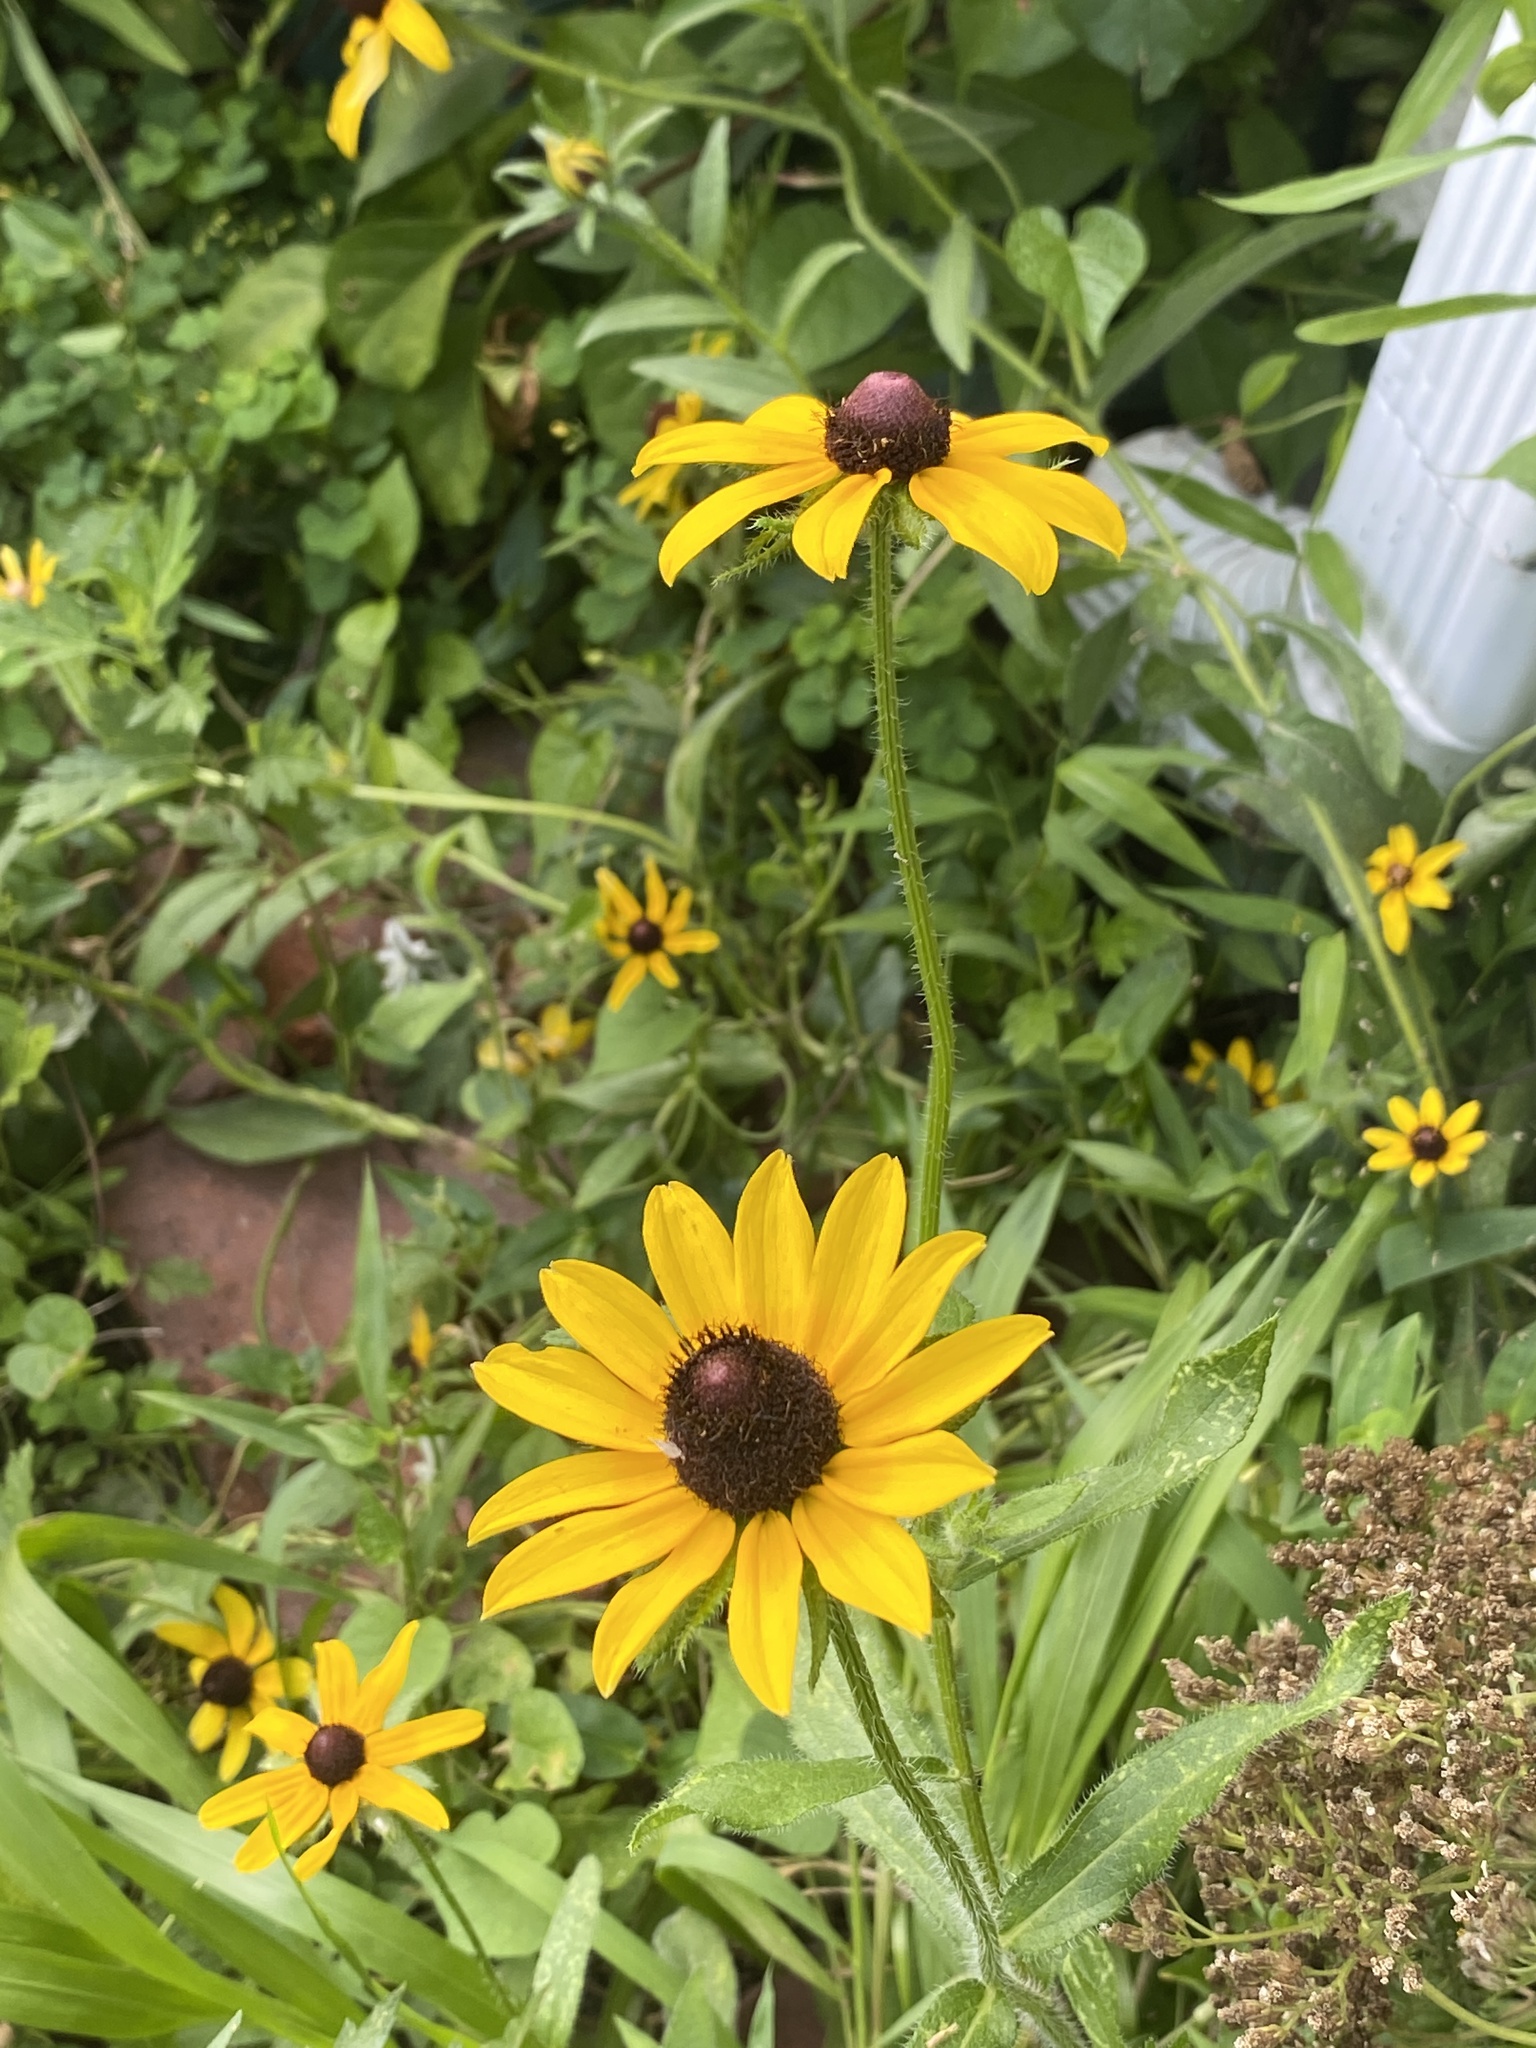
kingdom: Plantae
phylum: Tracheophyta
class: Magnoliopsida
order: Asterales
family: Asteraceae
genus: Rudbeckia
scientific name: Rudbeckia hirta
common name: Black-eyed-susan
